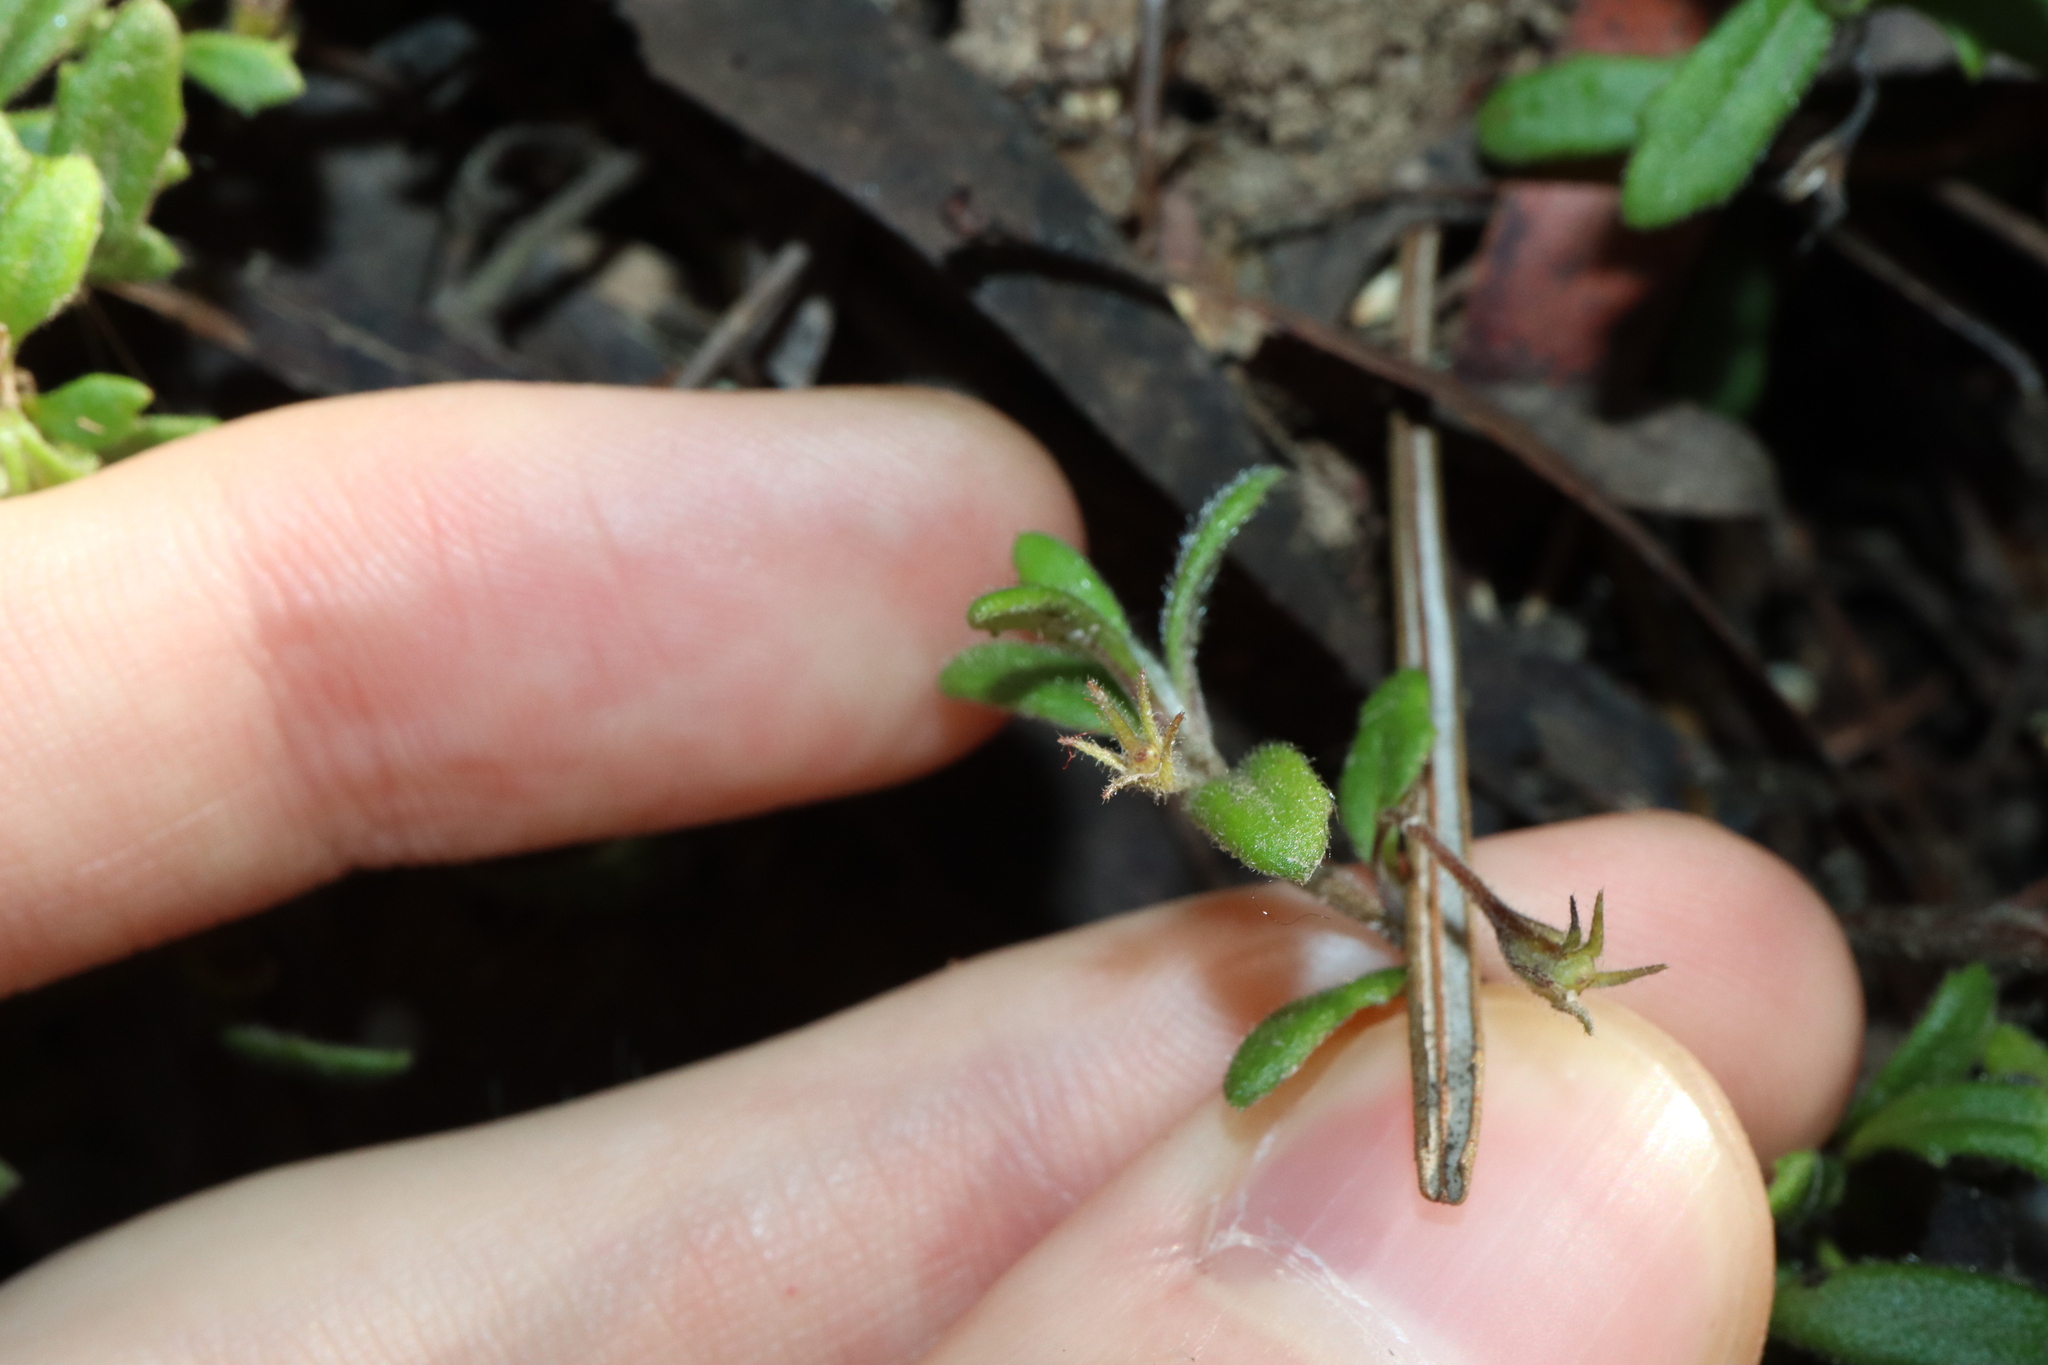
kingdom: Plantae
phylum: Tracheophyta
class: Magnoliopsida
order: Asterales
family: Goodeniaceae
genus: Goodenia
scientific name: Goodenia heterophylla
